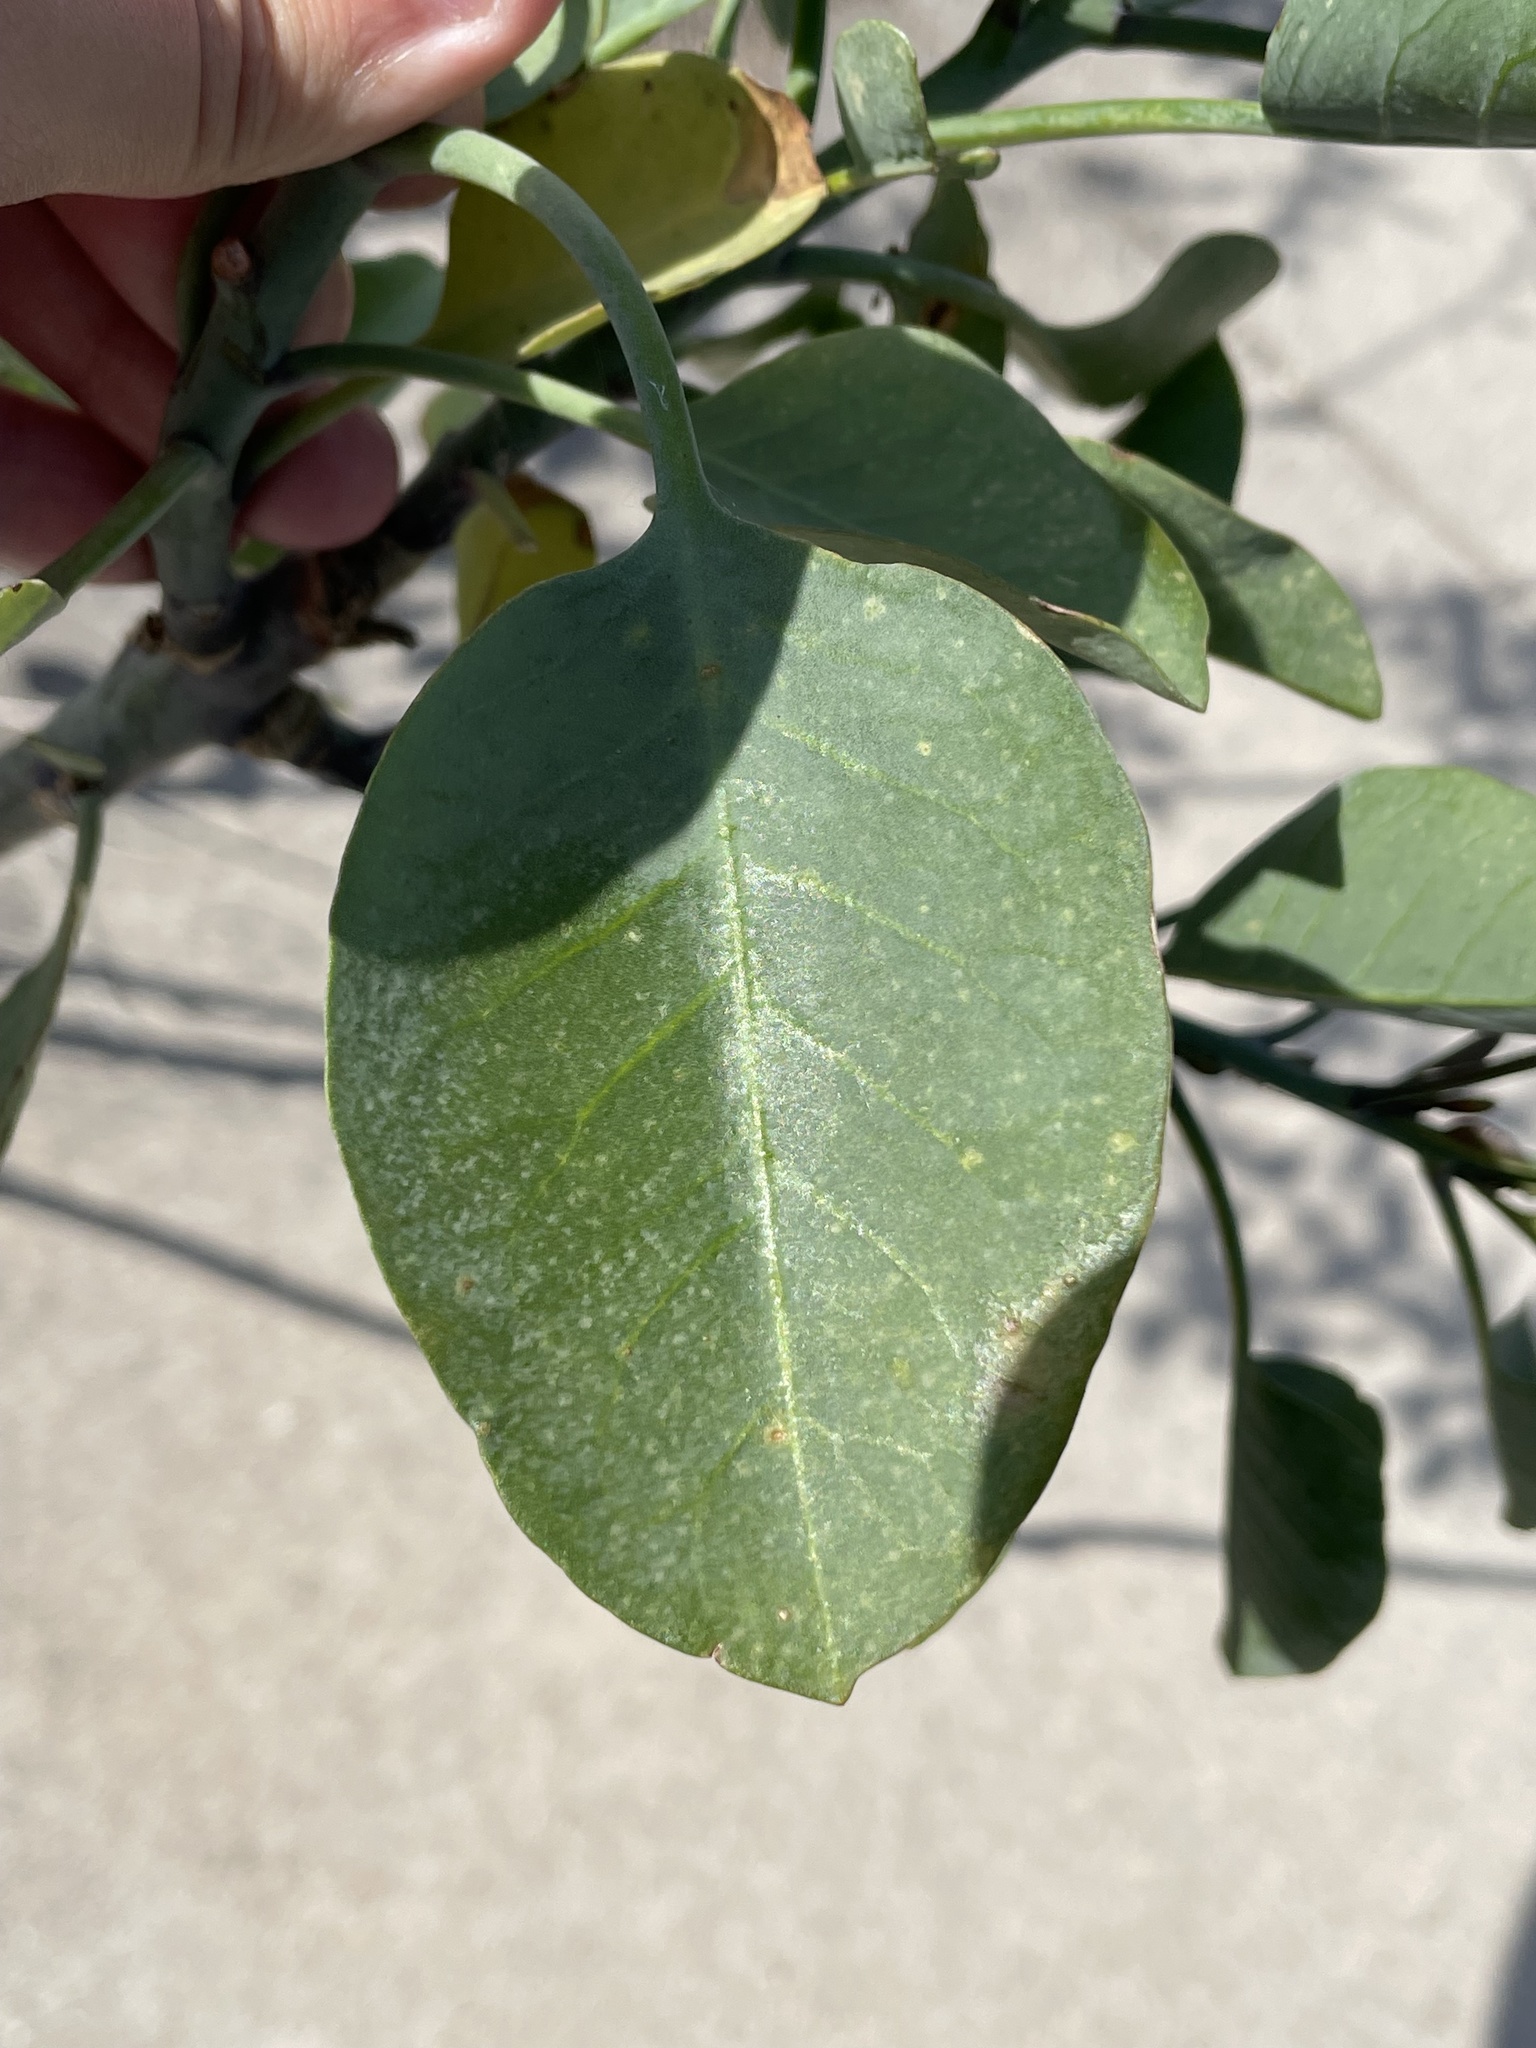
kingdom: Plantae
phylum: Tracheophyta
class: Magnoliopsida
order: Solanales
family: Solanaceae
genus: Nicotiana
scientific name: Nicotiana glauca
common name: Tree tobacco
